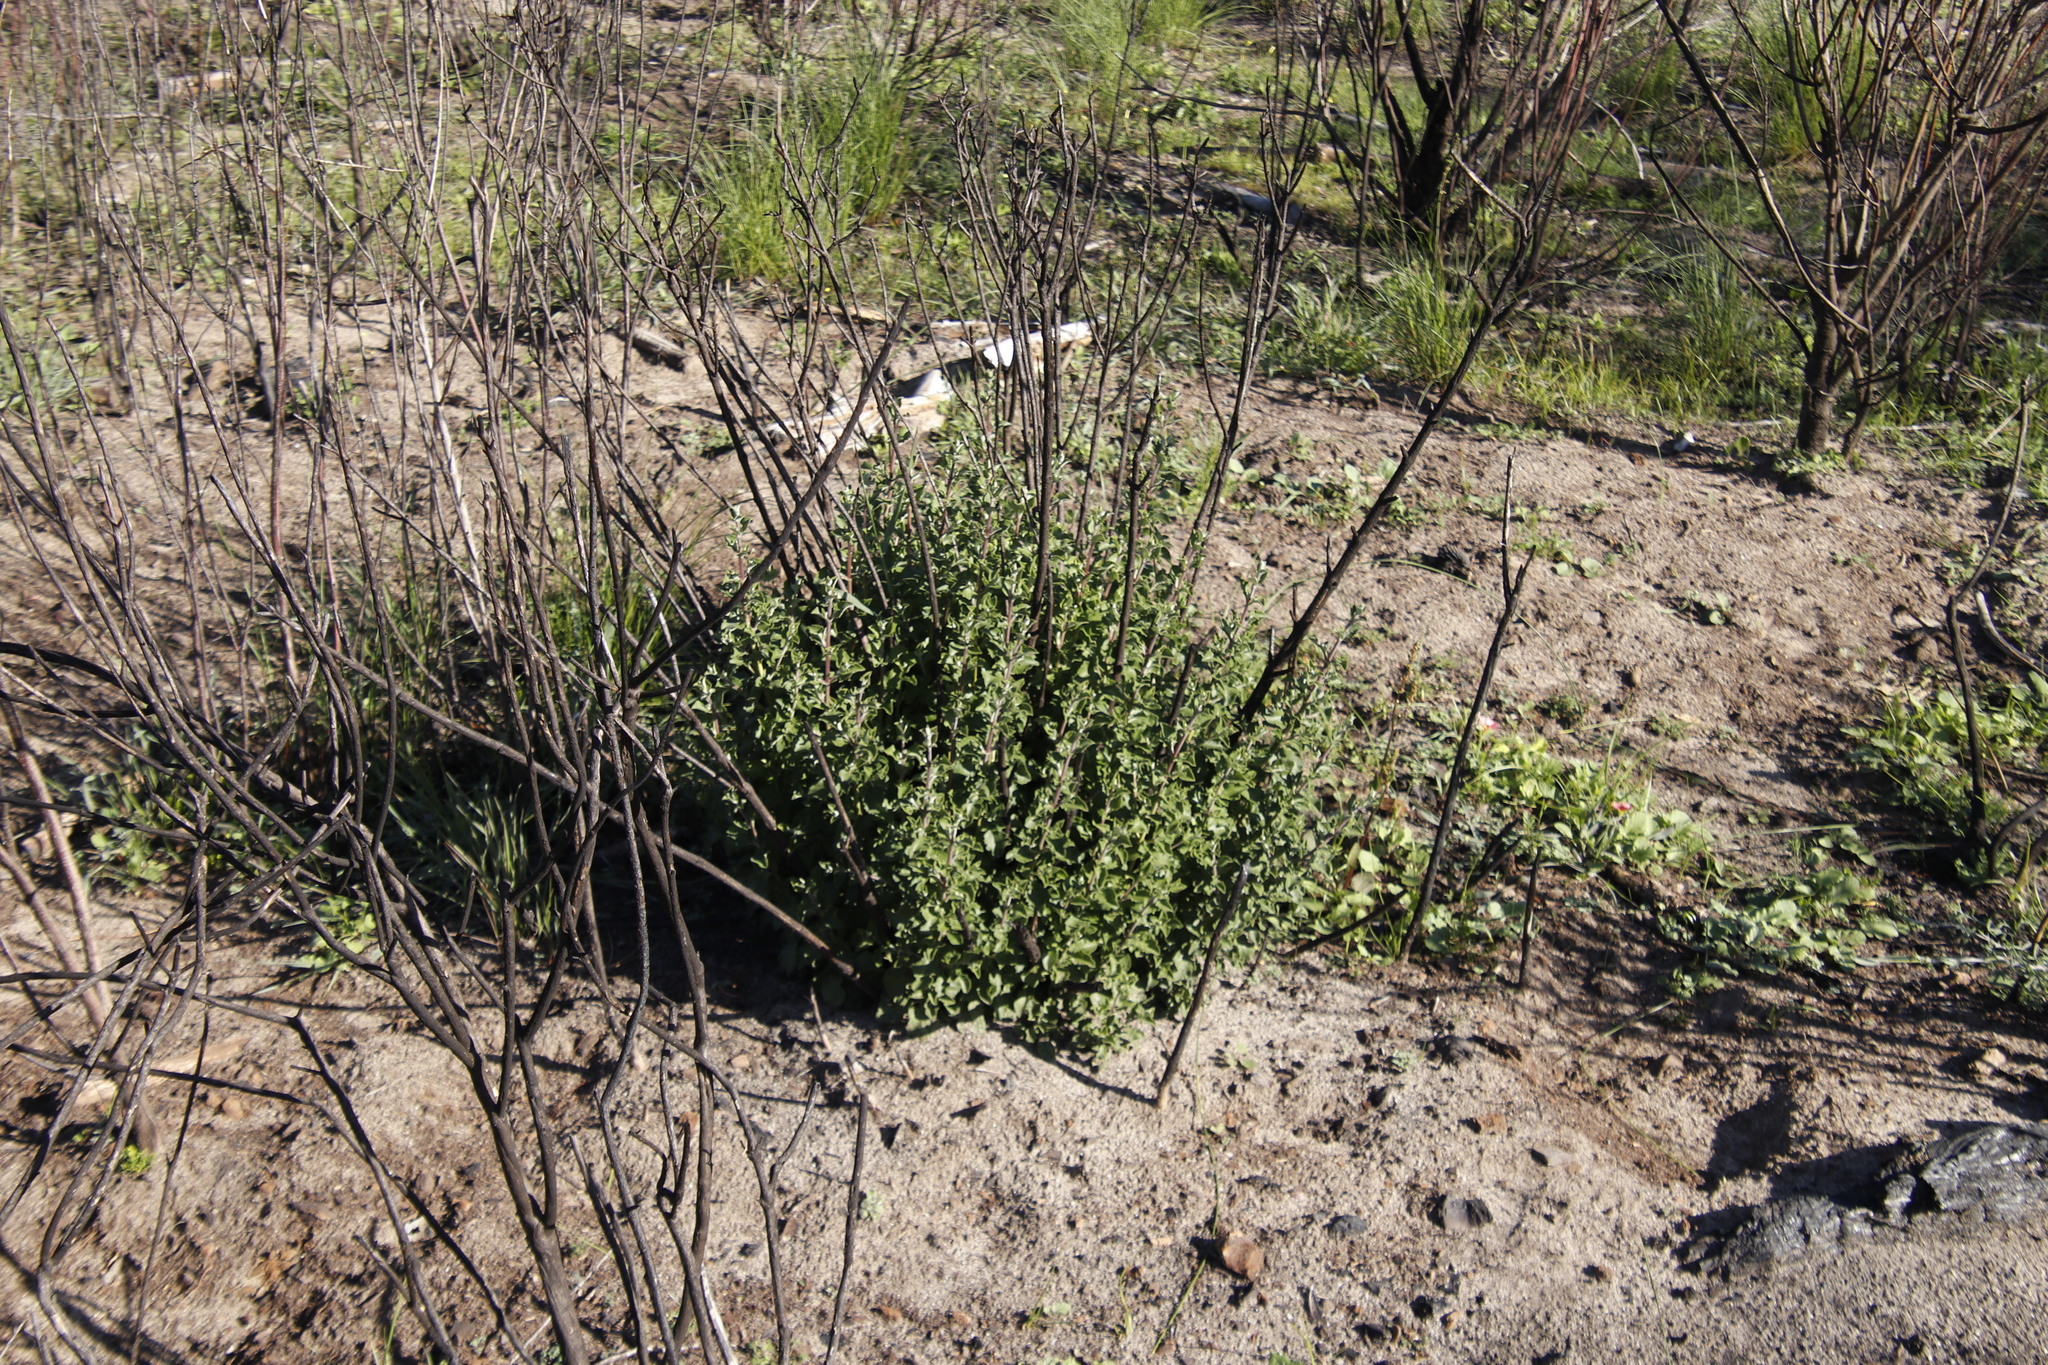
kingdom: Plantae
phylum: Tracheophyta
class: Magnoliopsida
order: Lamiales
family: Lamiaceae
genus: Salvia
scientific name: Salvia africana
